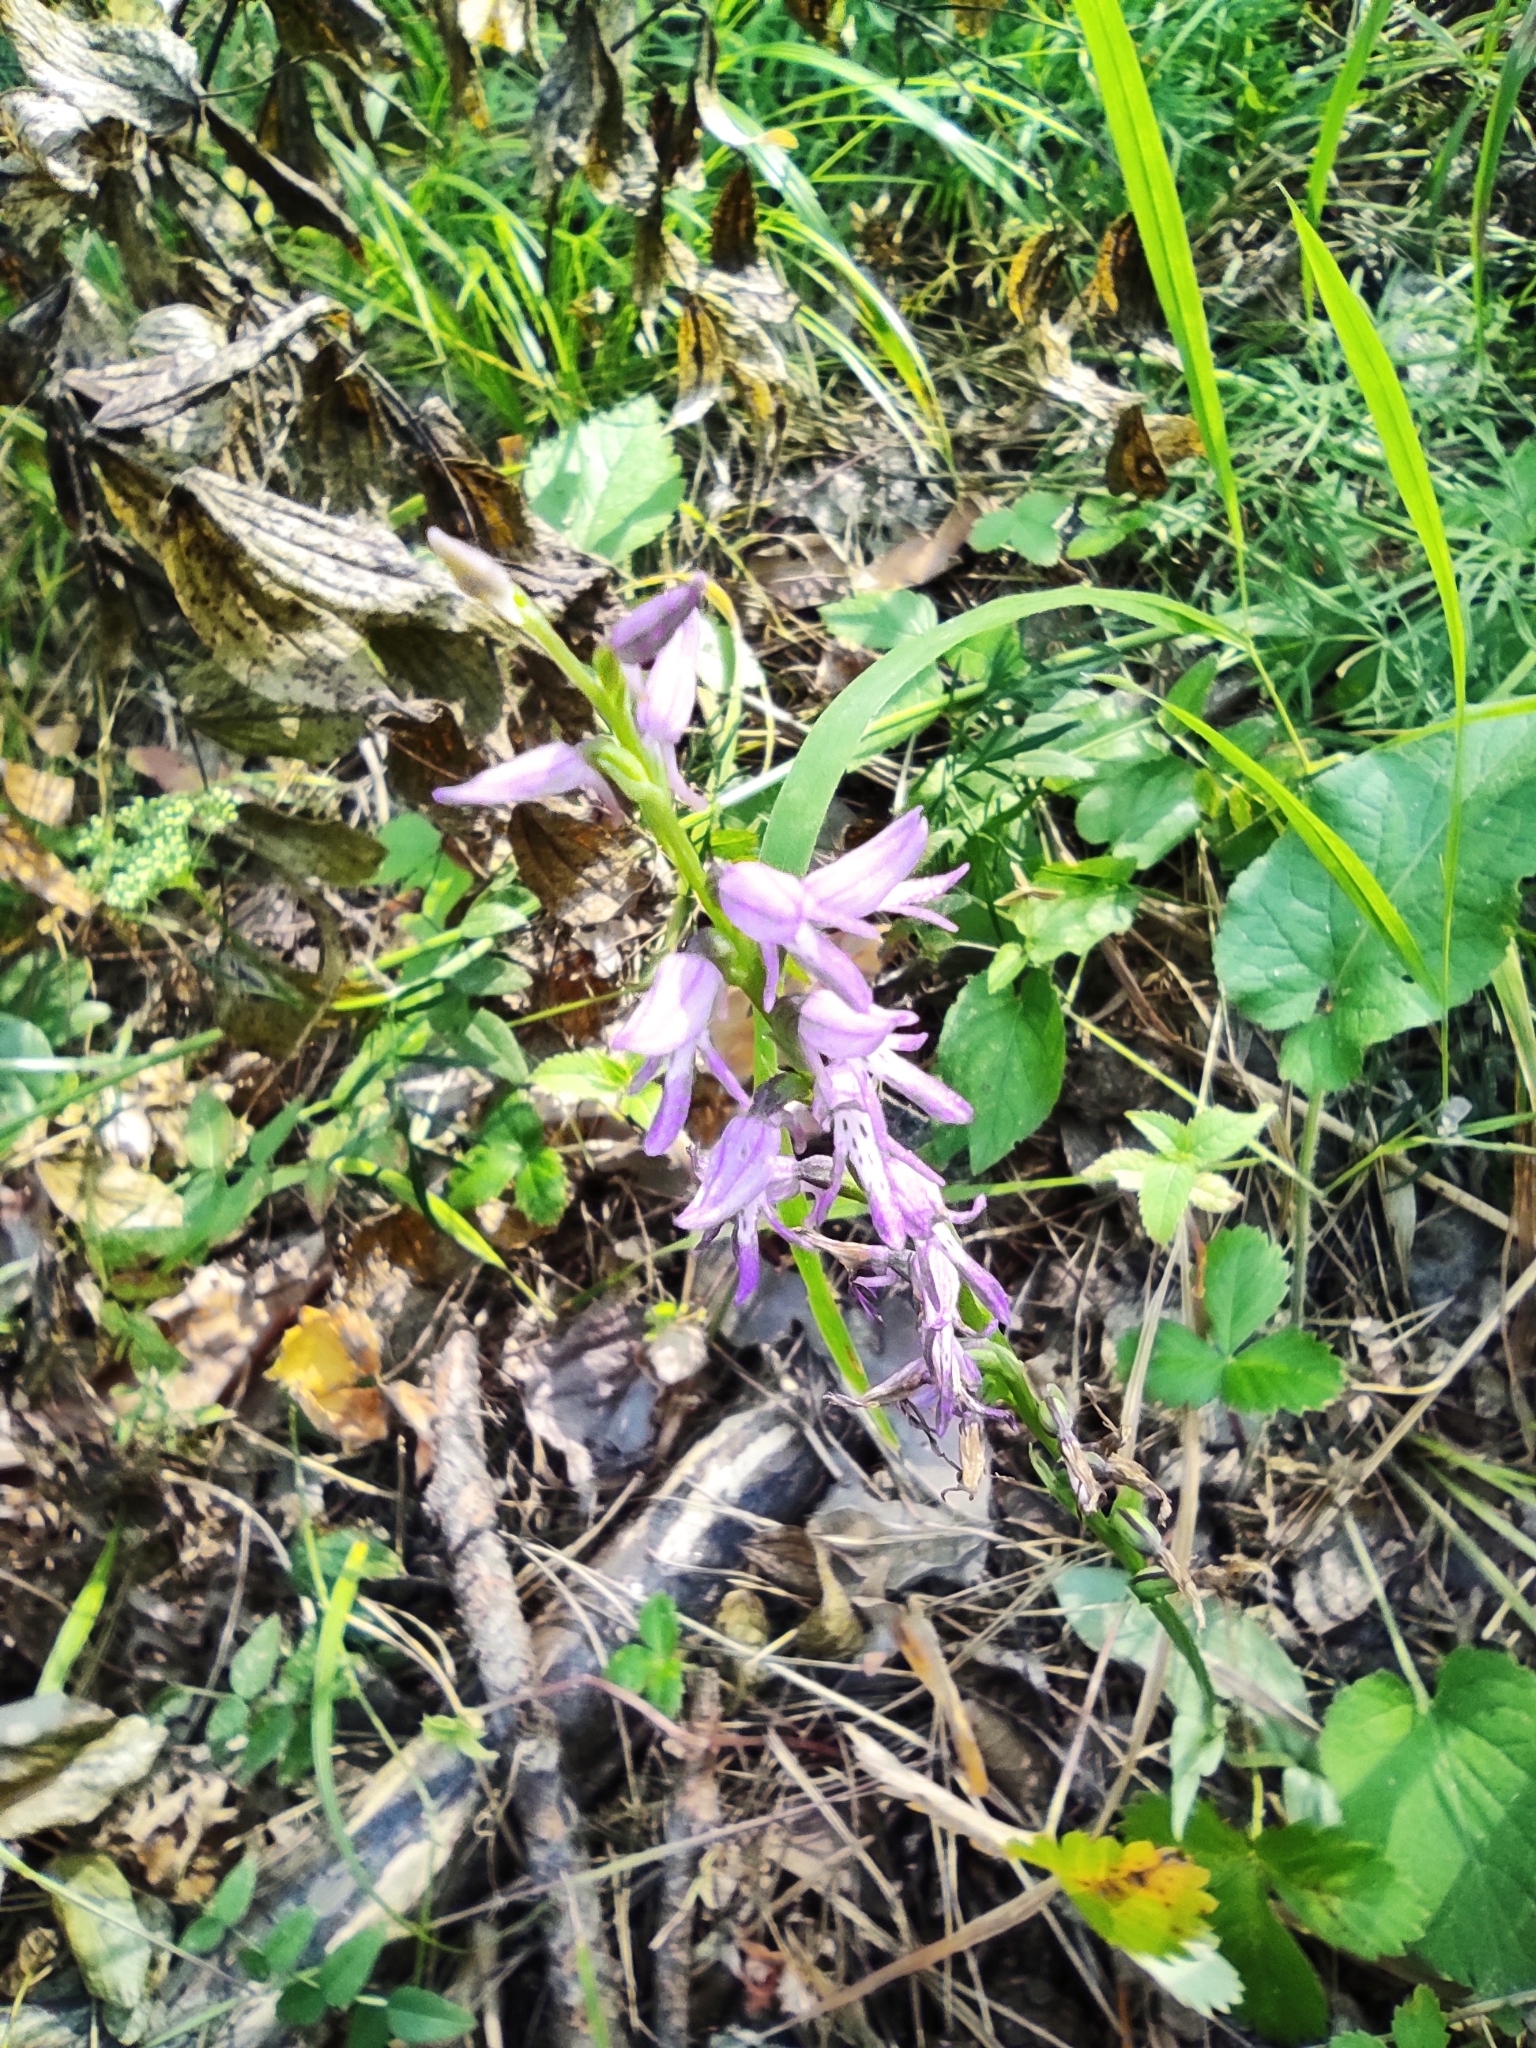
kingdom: Plantae
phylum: Tracheophyta
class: Liliopsida
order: Asparagales
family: Orchidaceae
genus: Hemipilia
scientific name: Hemipilia cucullata
